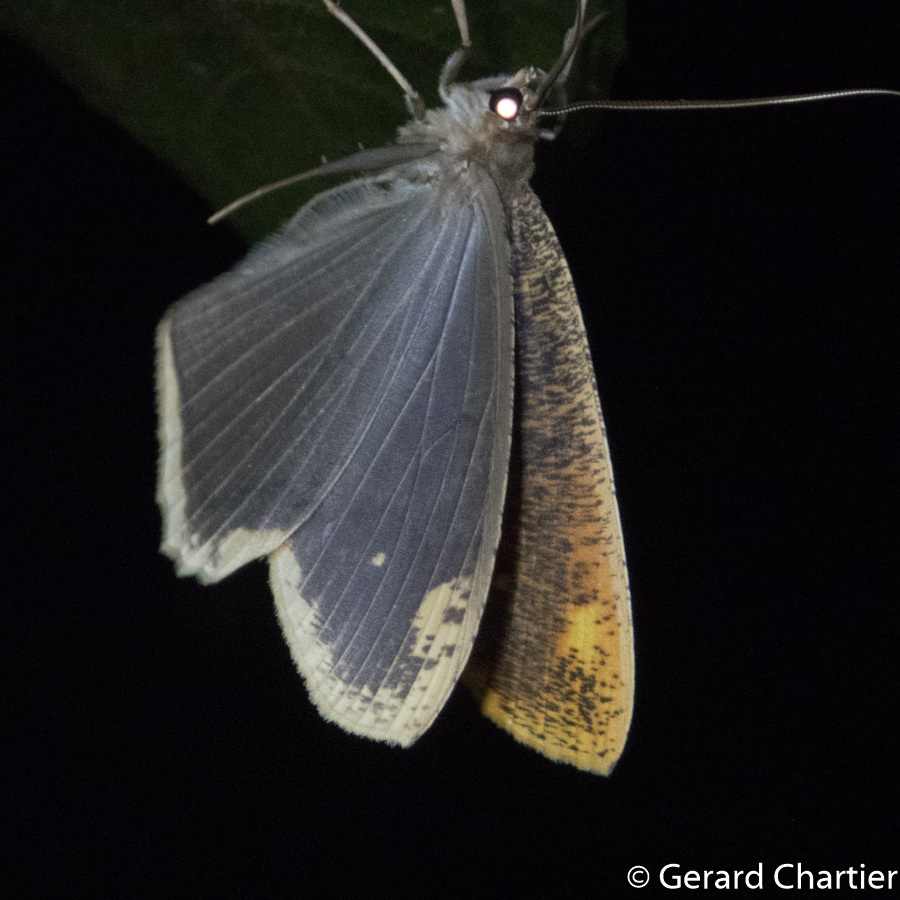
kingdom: Animalia
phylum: Arthropoda
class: Insecta
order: Lepidoptera
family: Geometridae
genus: Pareumelea
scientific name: Pareumelea hortensiata
